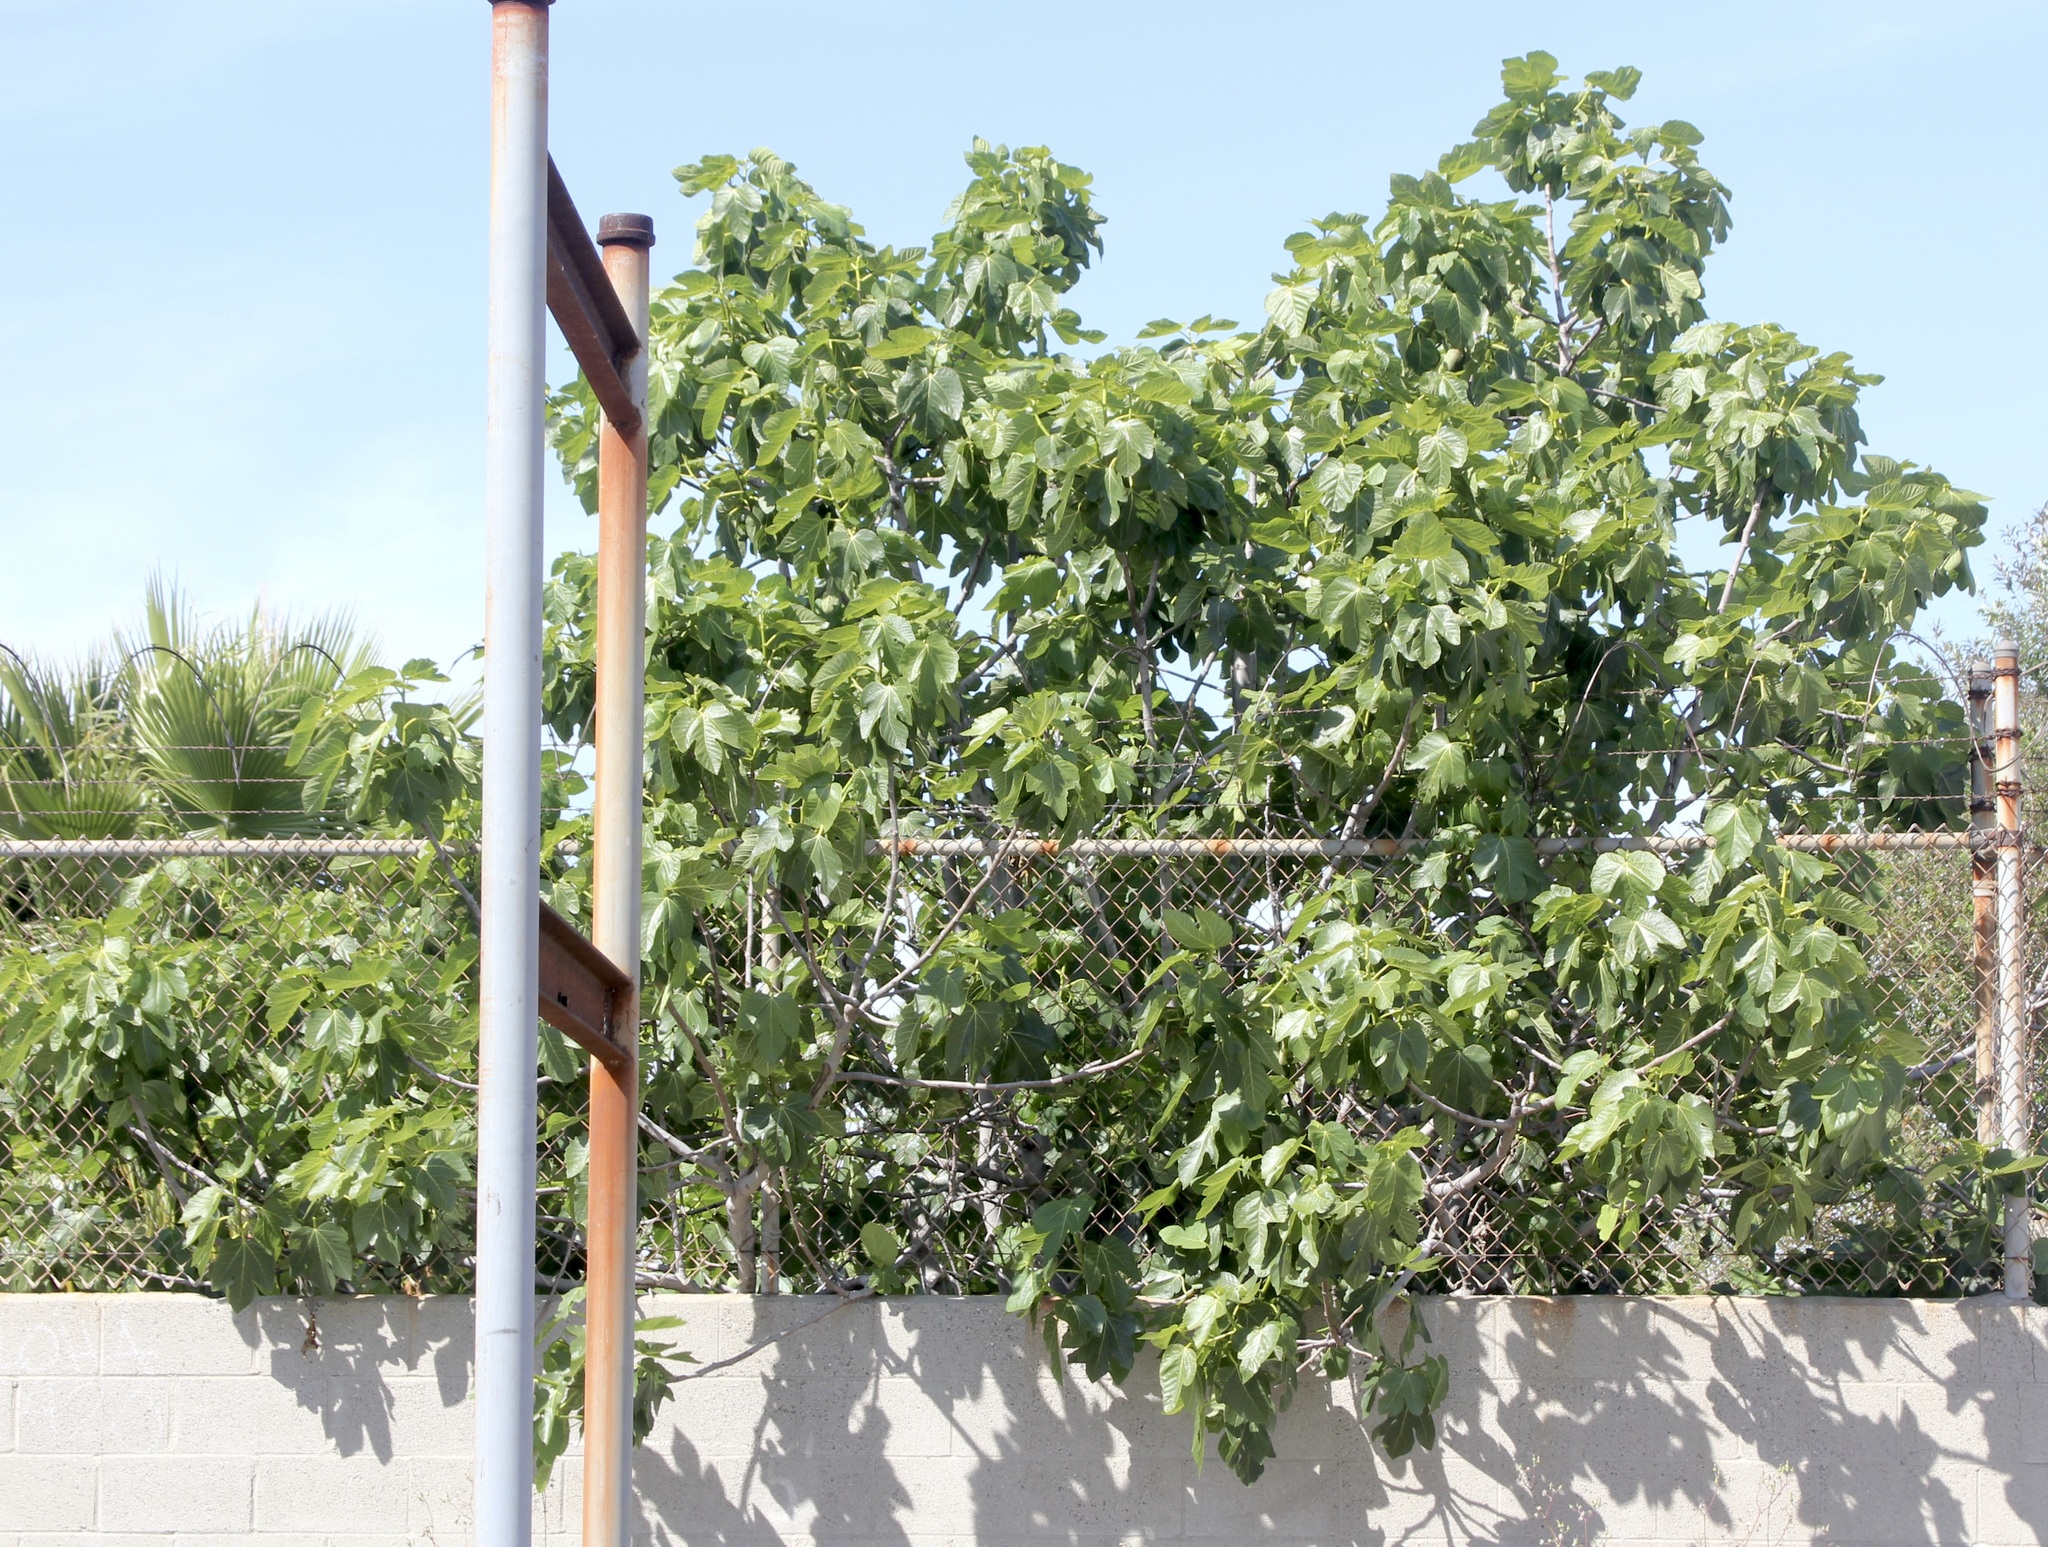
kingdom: Plantae
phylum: Tracheophyta
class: Magnoliopsida
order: Rosales
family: Moraceae
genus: Ficus
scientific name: Ficus carica
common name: Fig
